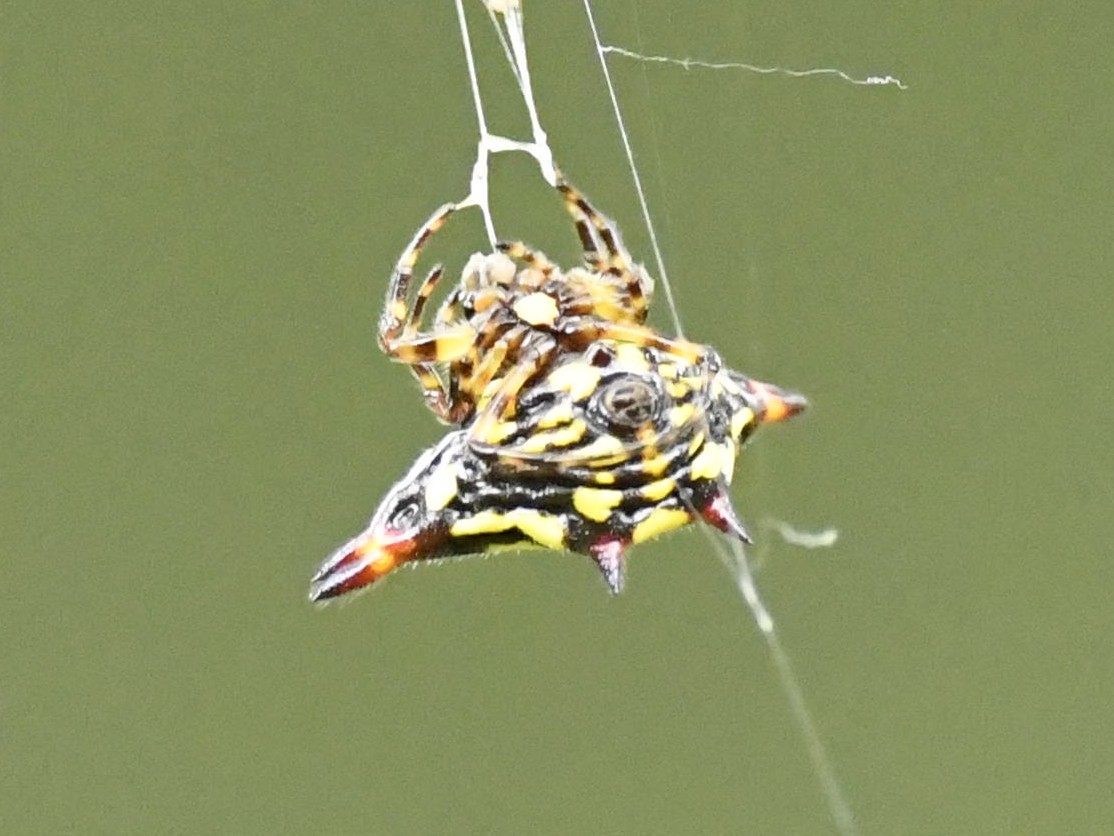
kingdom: Animalia
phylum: Arthropoda
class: Arachnida
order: Araneae
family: Araneidae
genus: Gasteracantha
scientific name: Gasteracantha geminata
